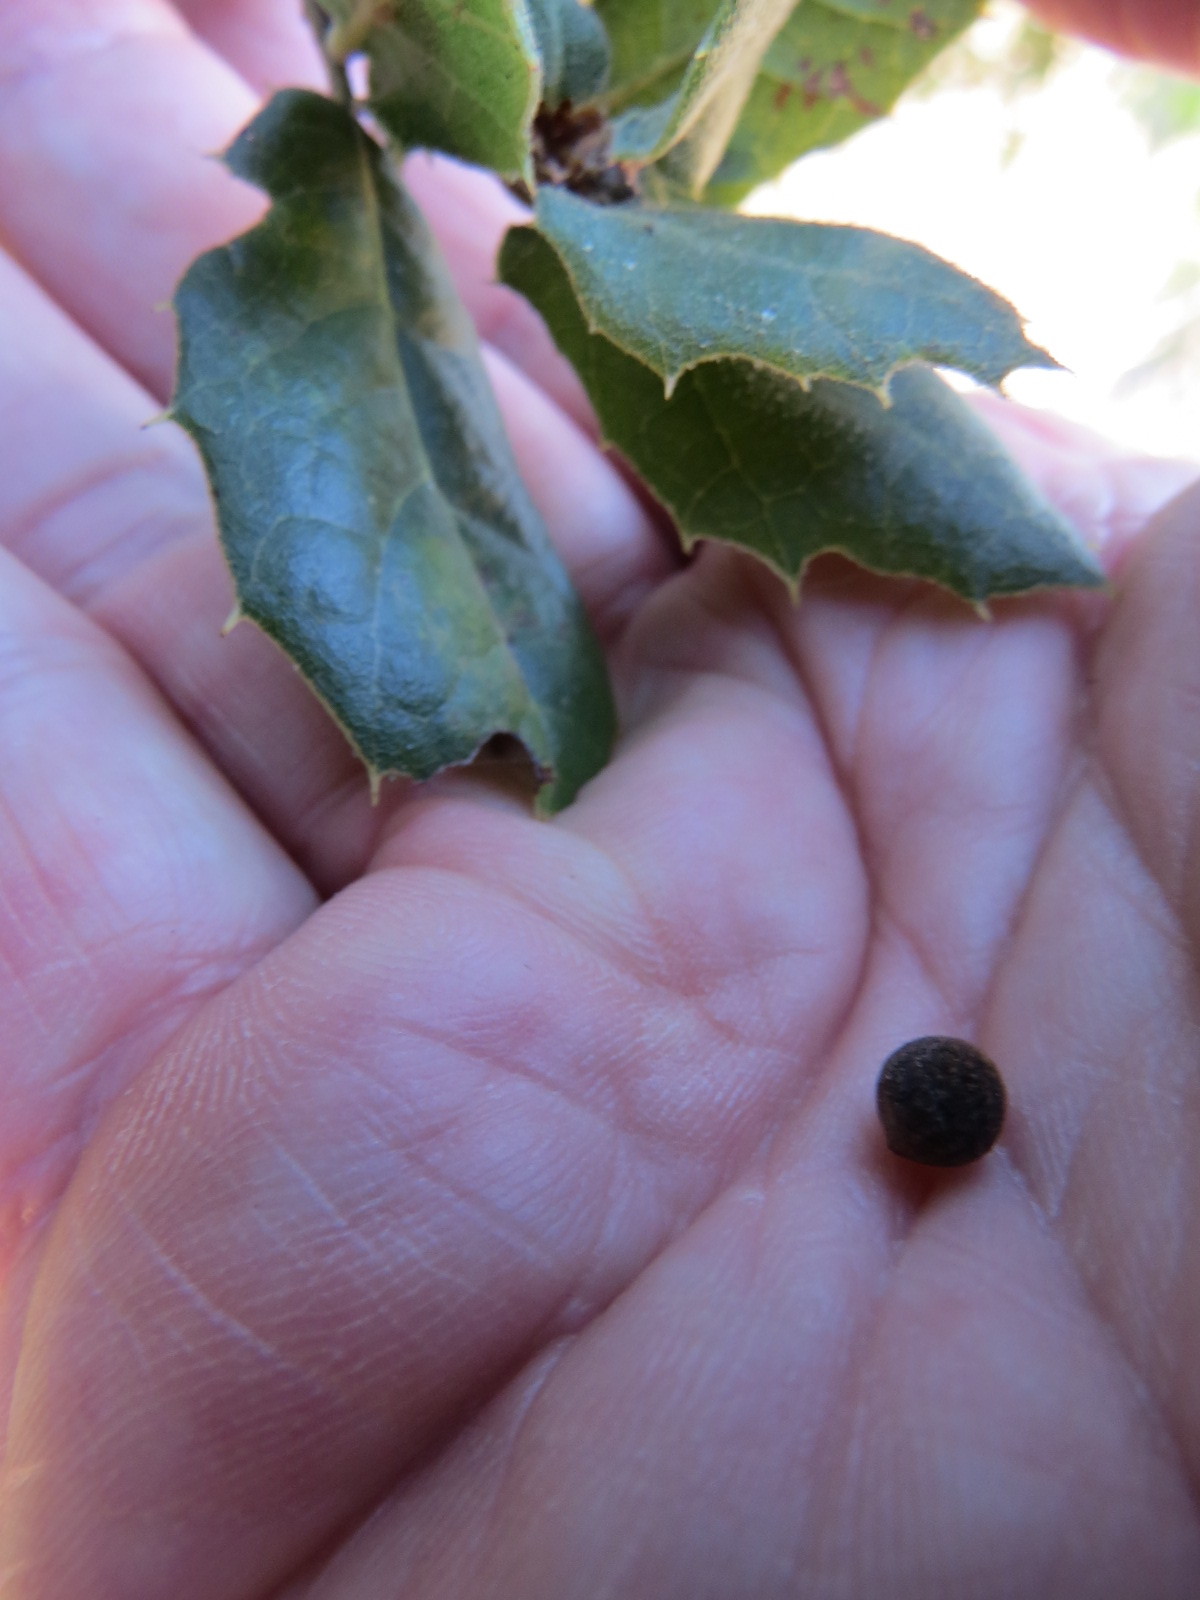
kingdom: Animalia
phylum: Arthropoda
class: Insecta
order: Hymenoptera
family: Cynipidae
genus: Callirhytis
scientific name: Callirhytis
